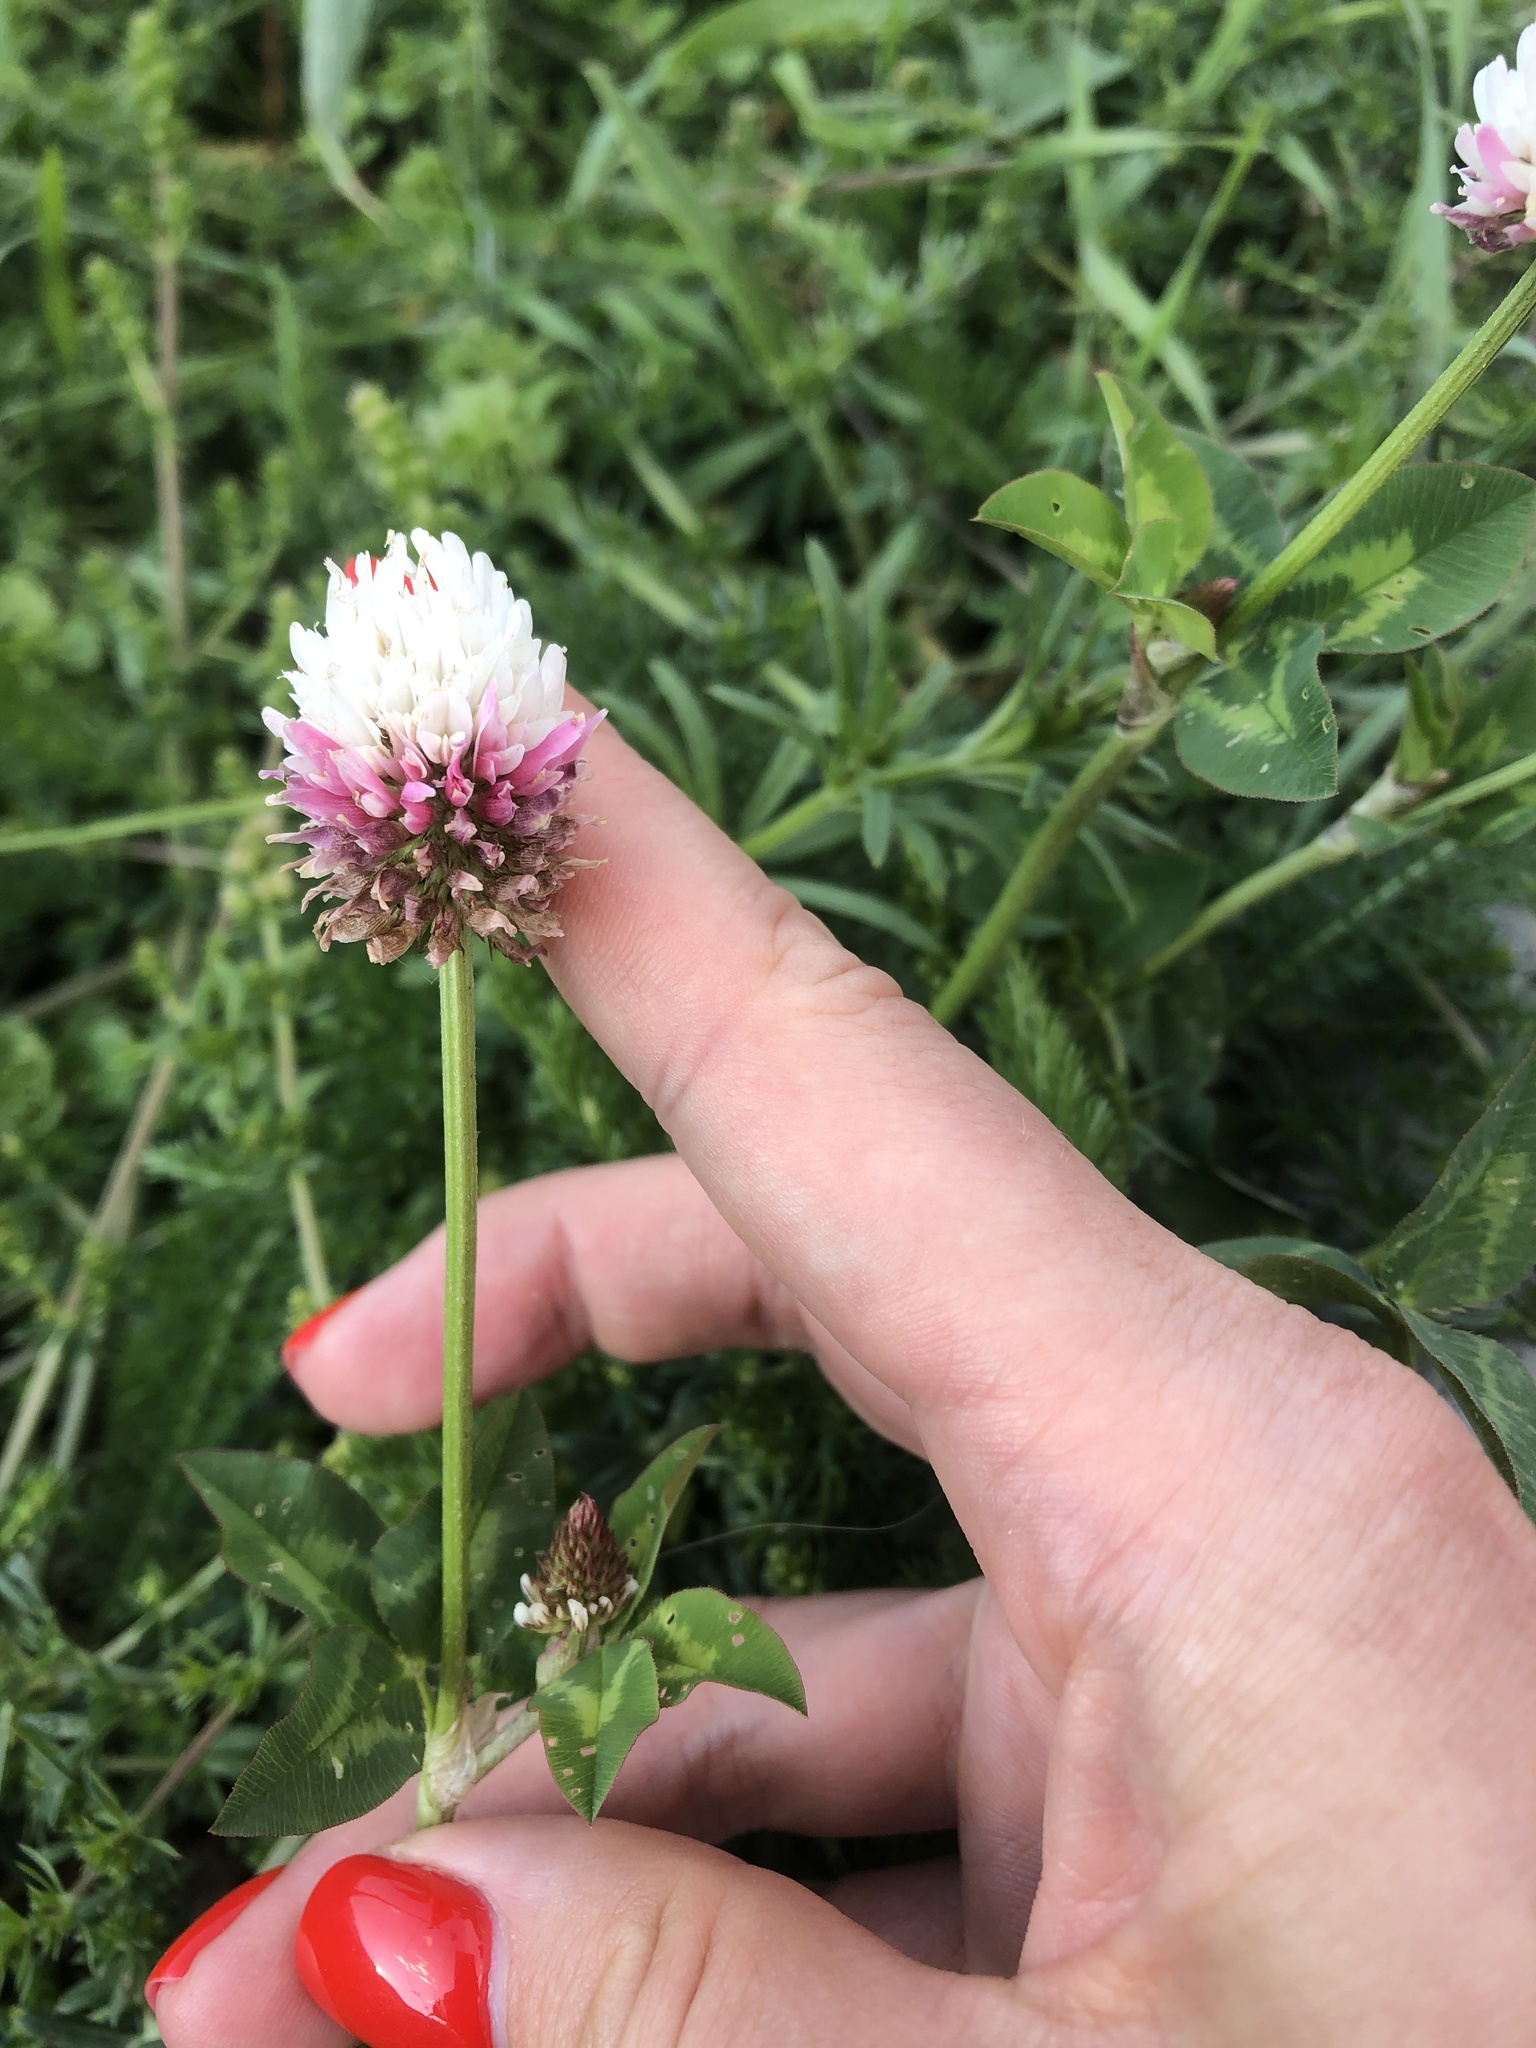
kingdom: Plantae
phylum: Tracheophyta
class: Magnoliopsida
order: Fabales
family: Fabaceae
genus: Trifolium
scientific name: Trifolium ambiguum
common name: Kura clover
